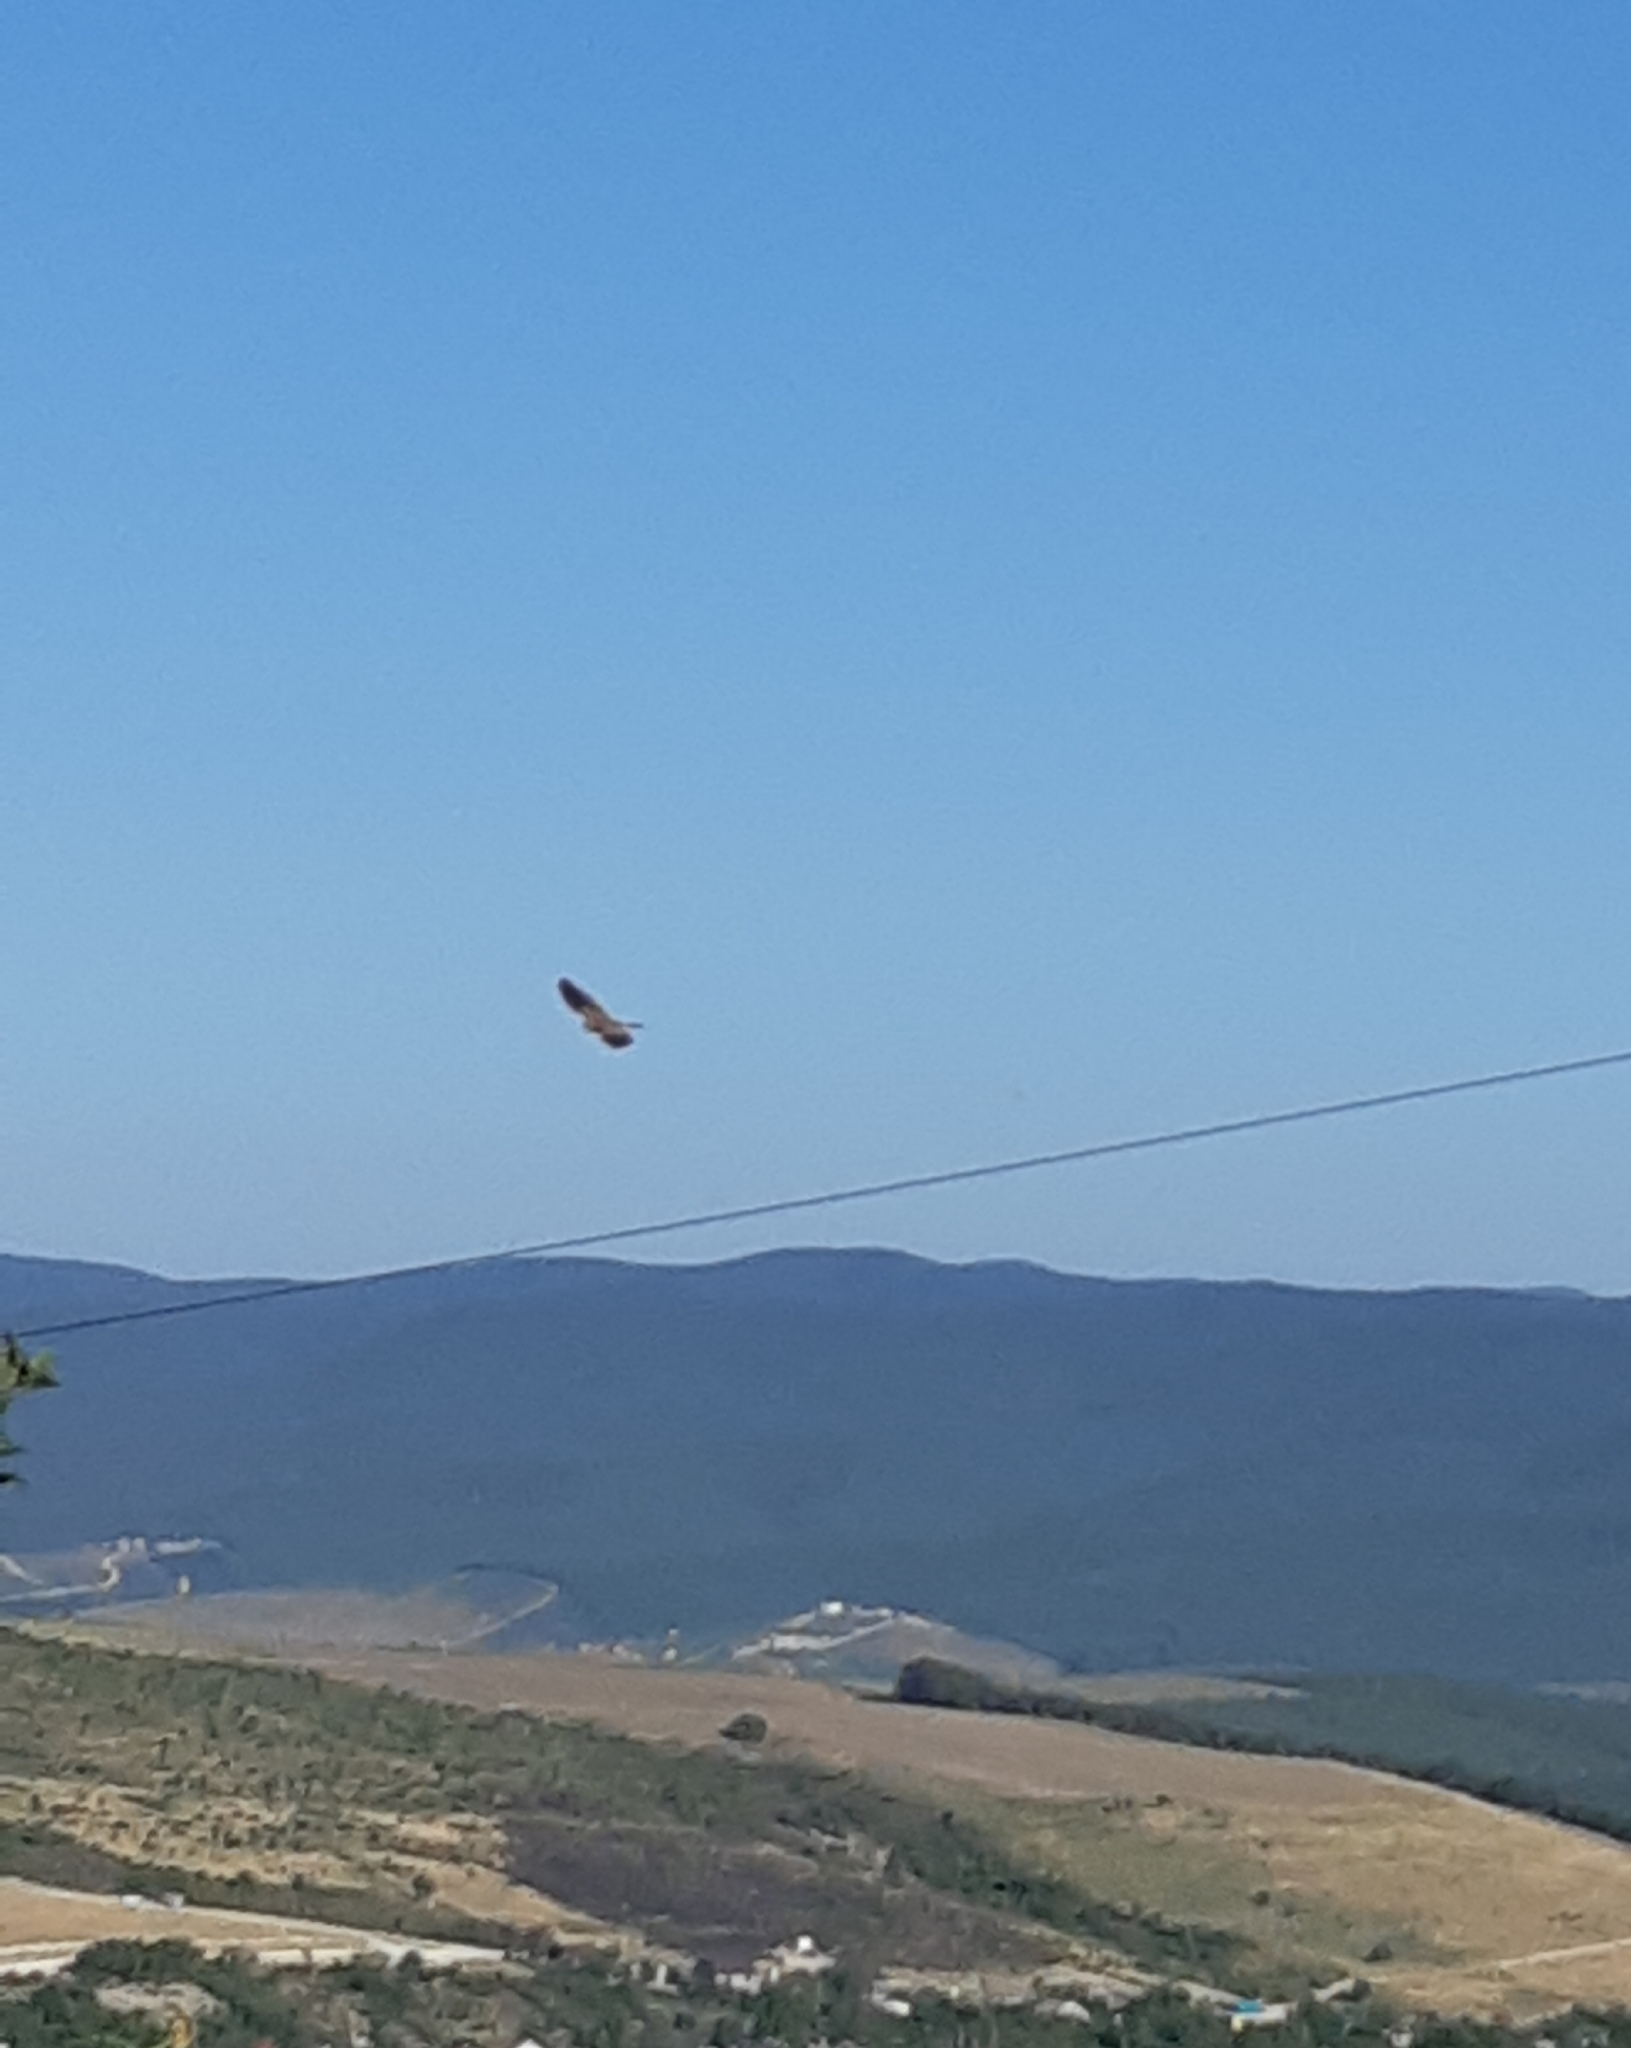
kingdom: Animalia
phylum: Chordata
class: Aves
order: Falconiformes
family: Falconidae
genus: Falco
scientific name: Falco tinnunculus
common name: Common kestrel
